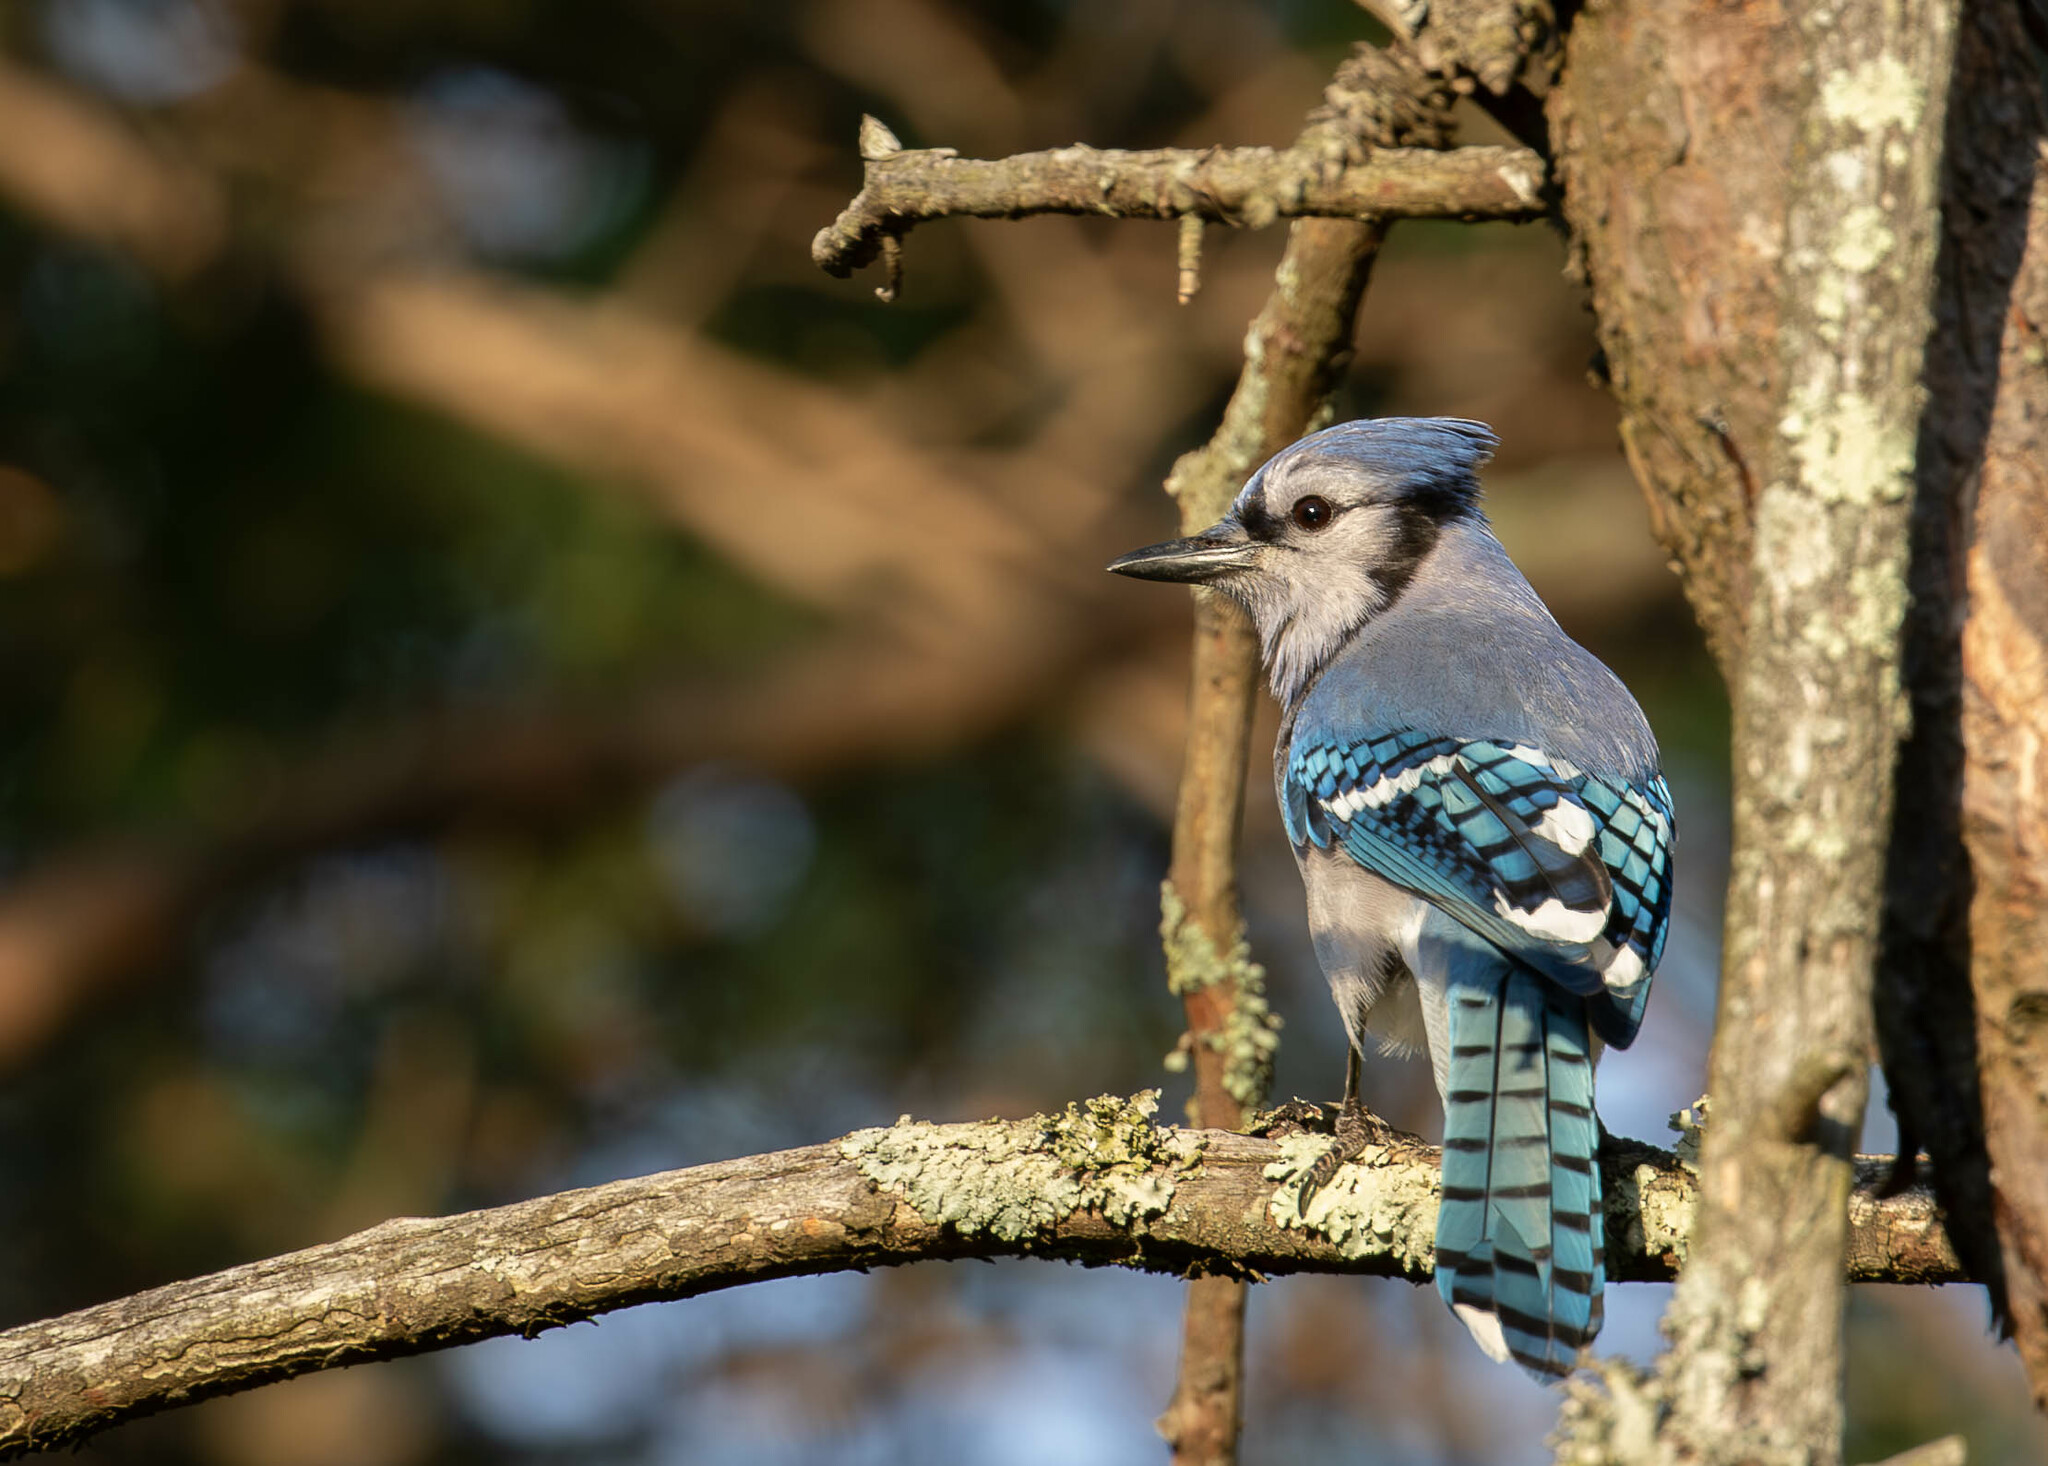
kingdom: Animalia
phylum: Chordata
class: Aves
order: Passeriformes
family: Corvidae
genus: Cyanocitta
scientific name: Cyanocitta cristata
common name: Blue jay
